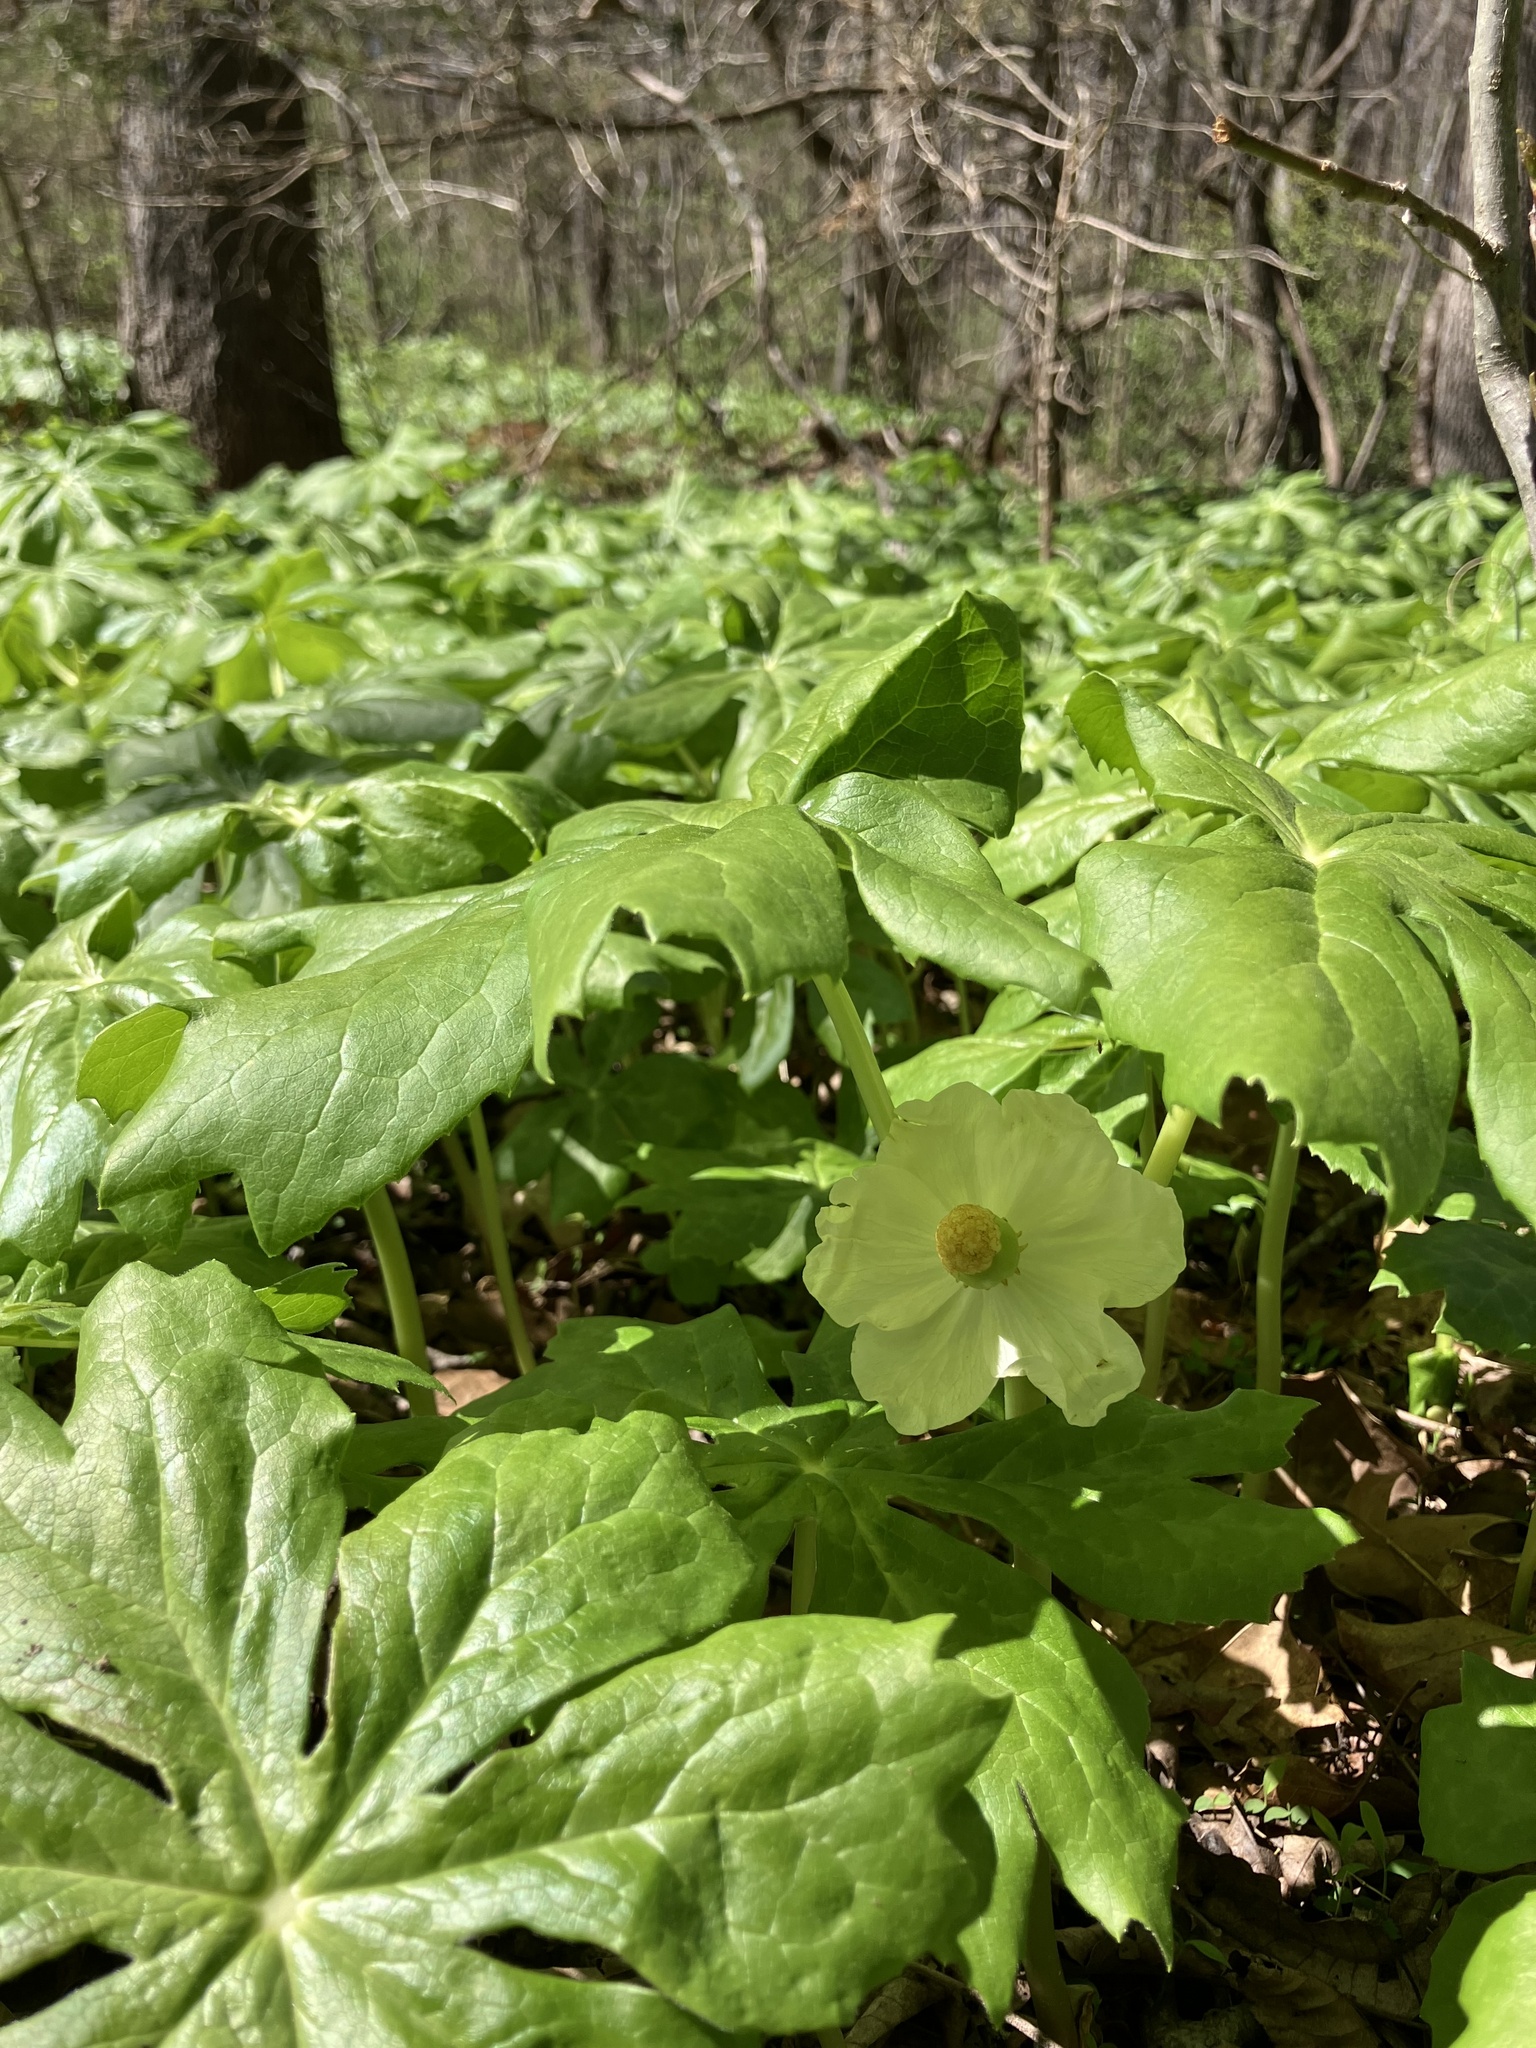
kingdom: Plantae
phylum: Tracheophyta
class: Magnoliopsida
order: Ranunculales
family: Berberidaceae
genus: Podophyllum
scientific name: Podophyllum peltatum
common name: Wild mandrake
